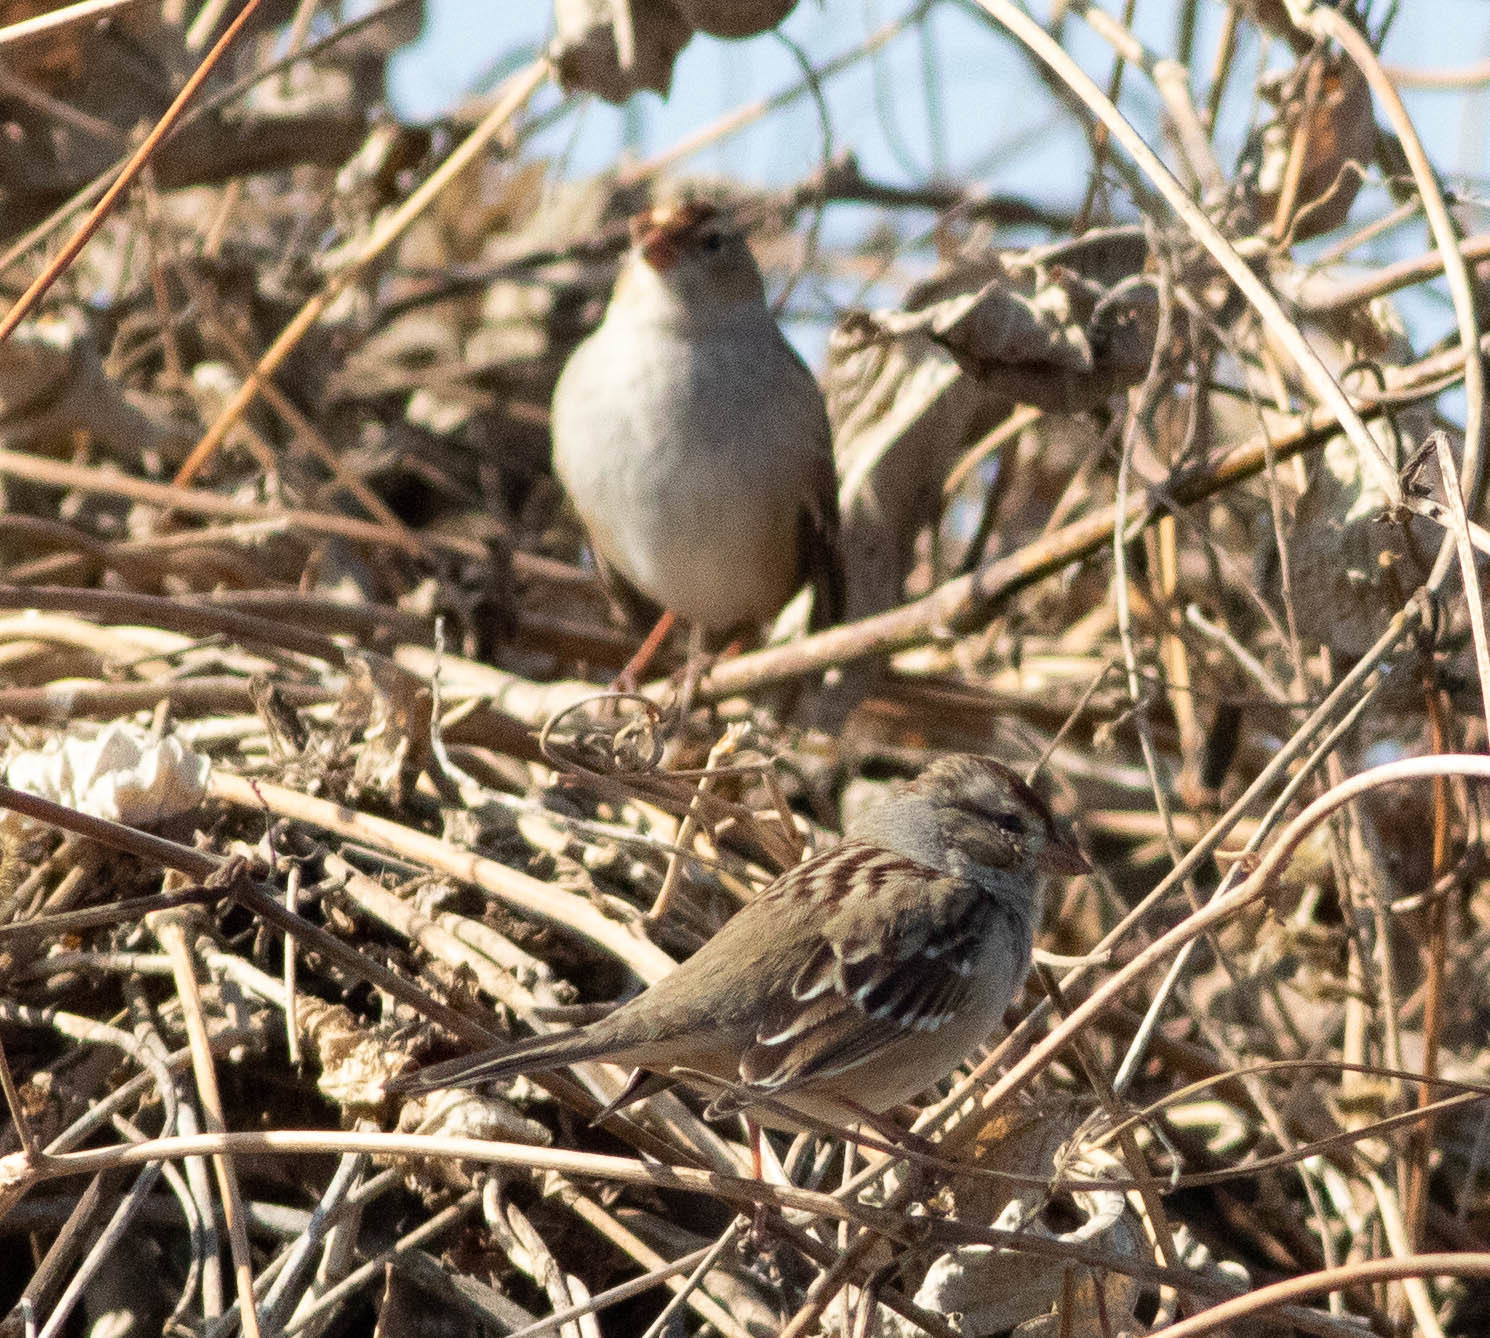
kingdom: Animalia
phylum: Chordata
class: Aves
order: Passeriformes
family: Passerellidae
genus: Zonotrichia
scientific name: Zonotrichia leucophrys
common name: White-crowned sparrow
